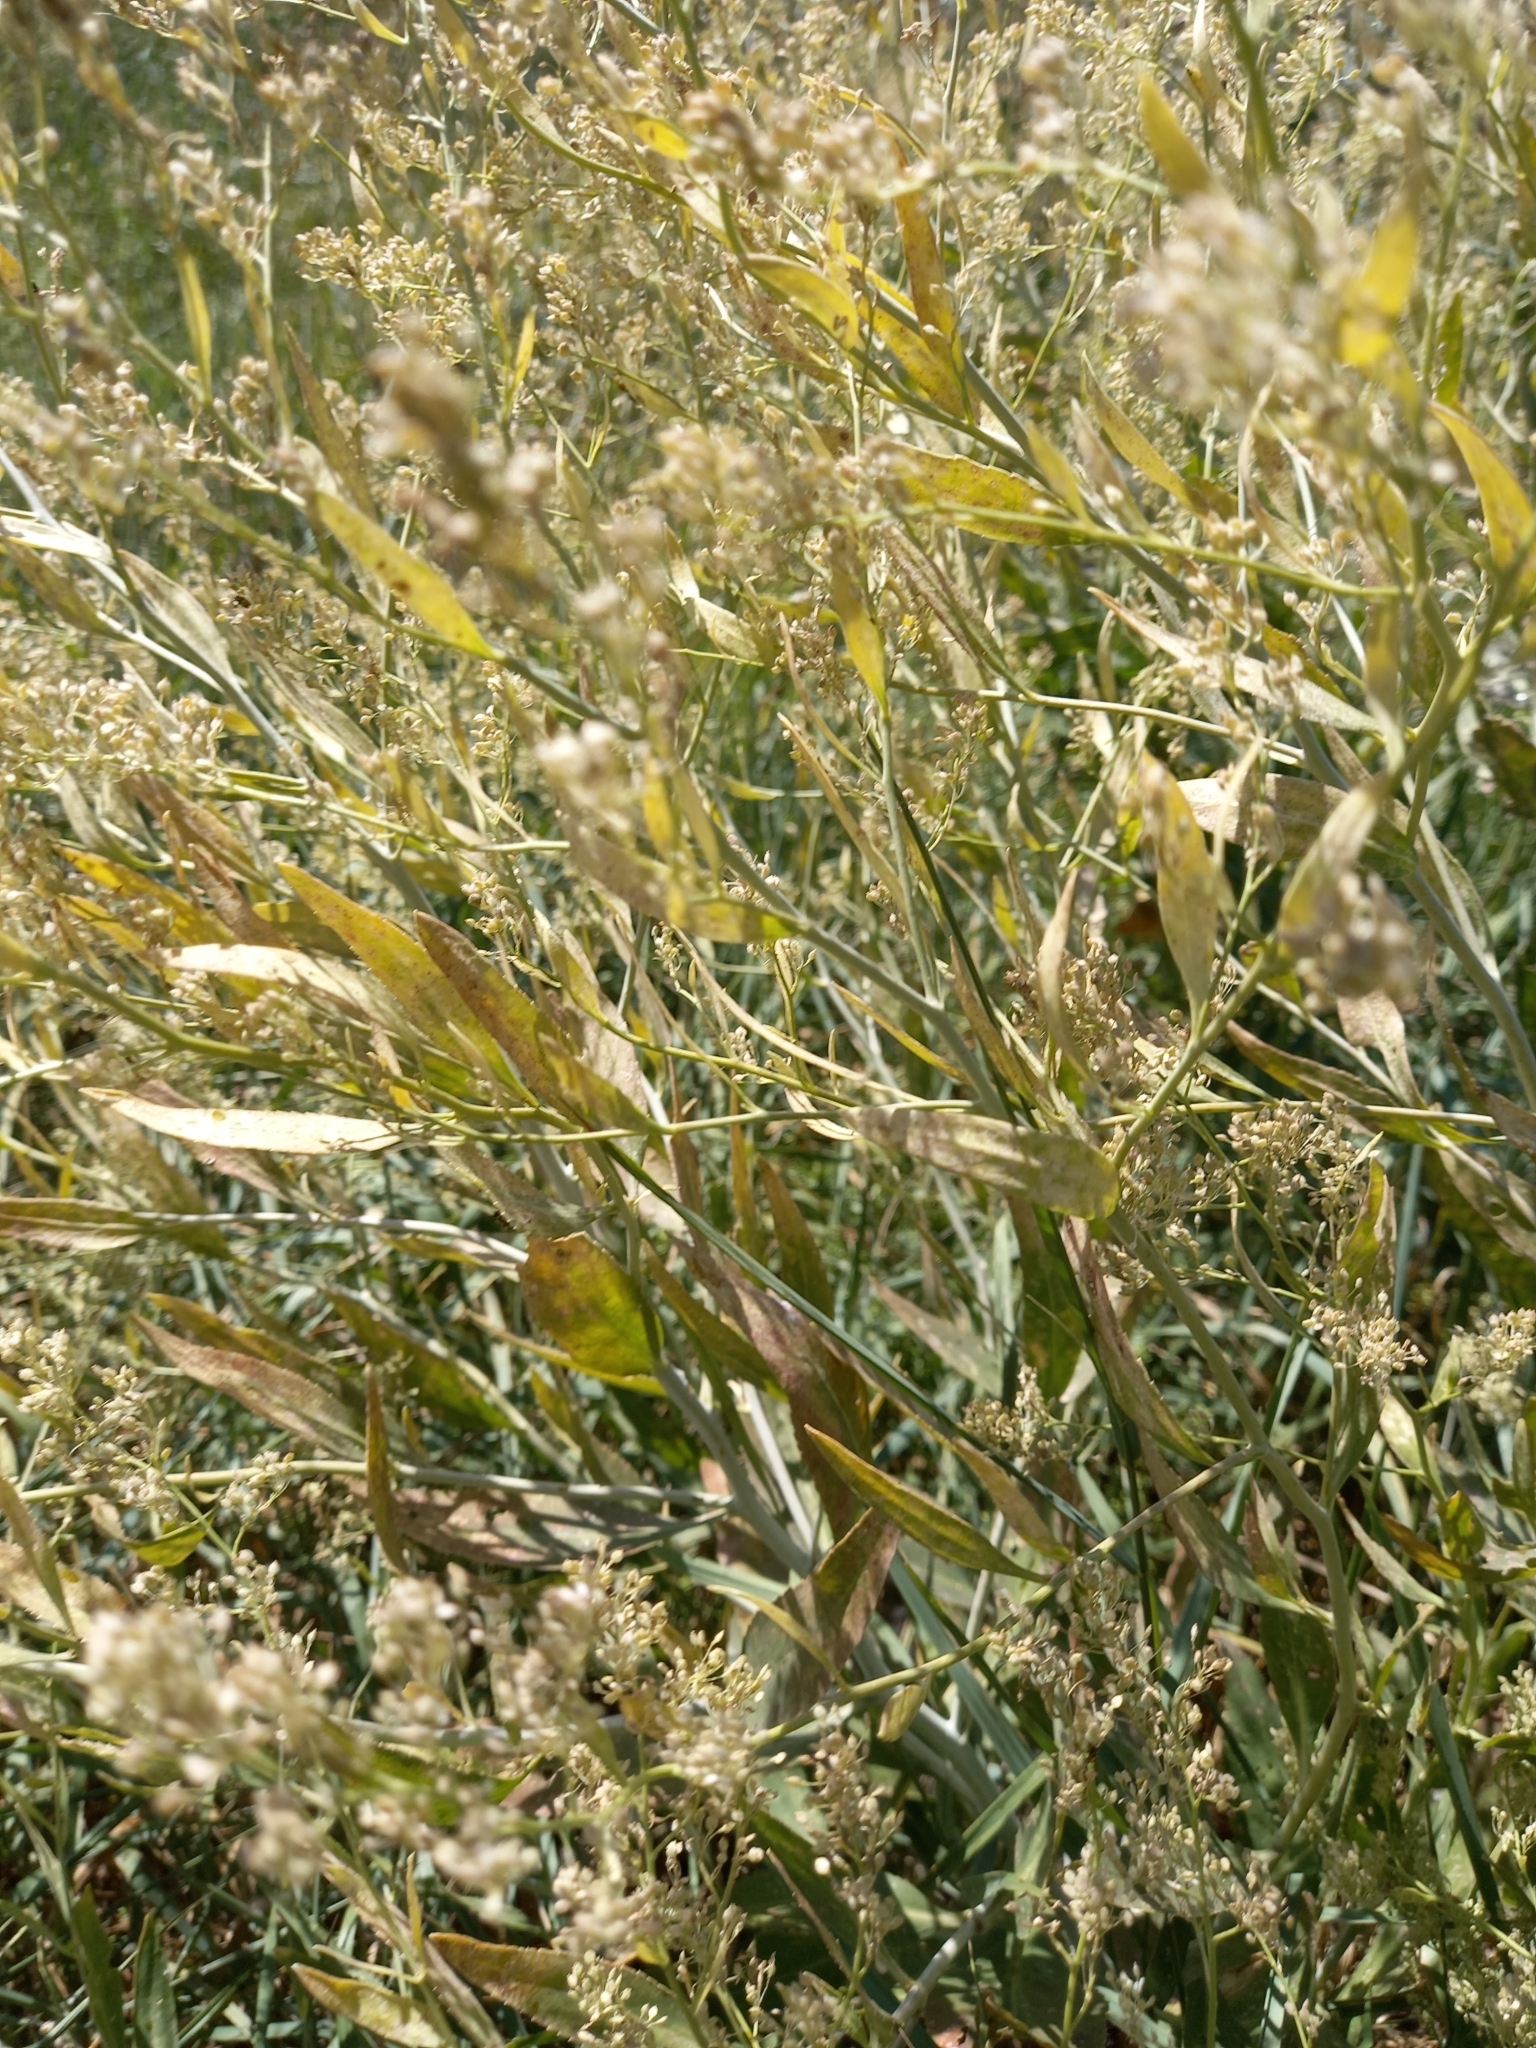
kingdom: Plantae
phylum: Tracheophyta
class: Magnoliopsida
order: Brassicales
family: Brassicaceae
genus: Lepidium
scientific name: Lepidium latifolium
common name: Dittander
